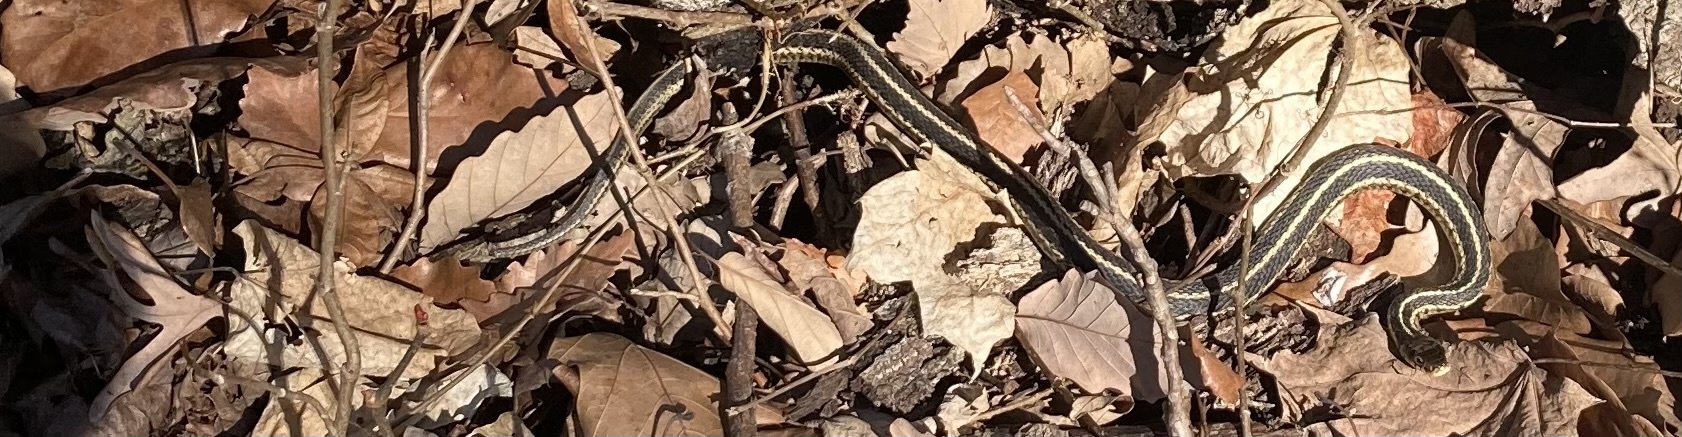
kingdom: Animalia
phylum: Chordata
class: Squamata
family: Colubridae
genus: Thamnophis
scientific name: Thamnophis sirtalis
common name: Common garter snake
